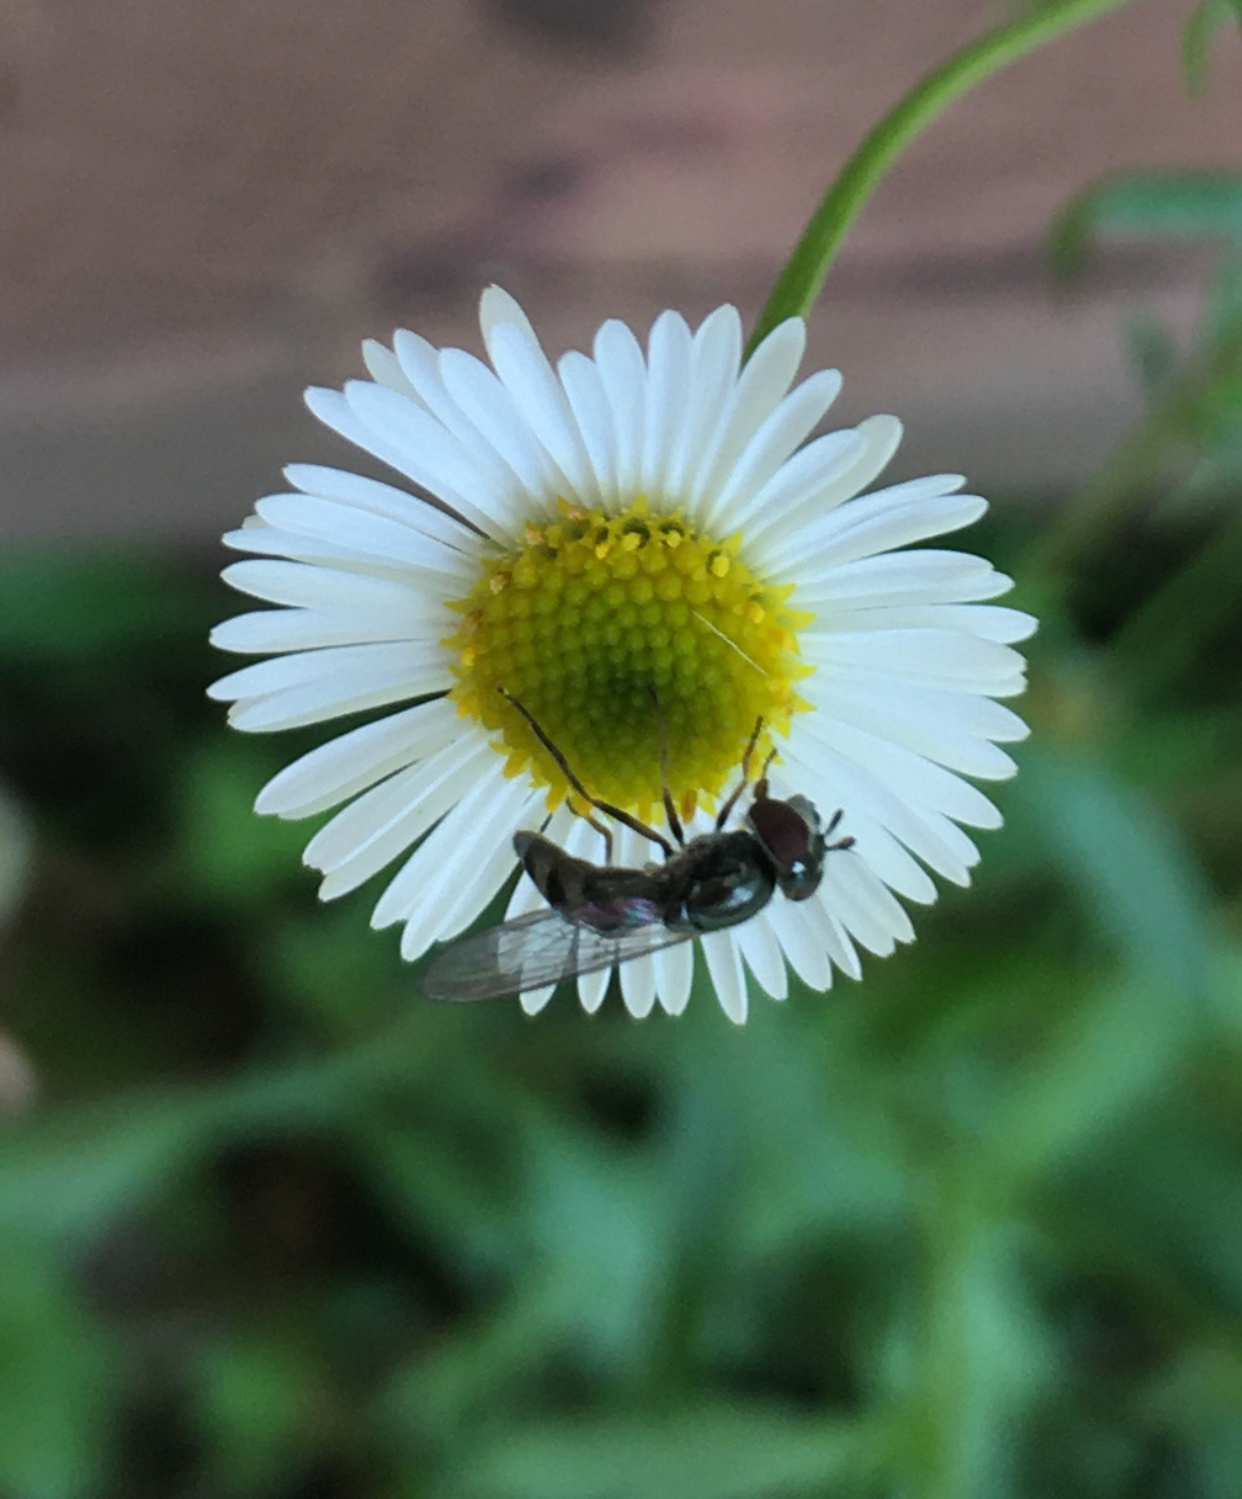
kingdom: Animalia
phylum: Arthropoda
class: Insecta
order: Diptera
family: Syrphidae
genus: Platycheirus
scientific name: Platycheirus trichopus
